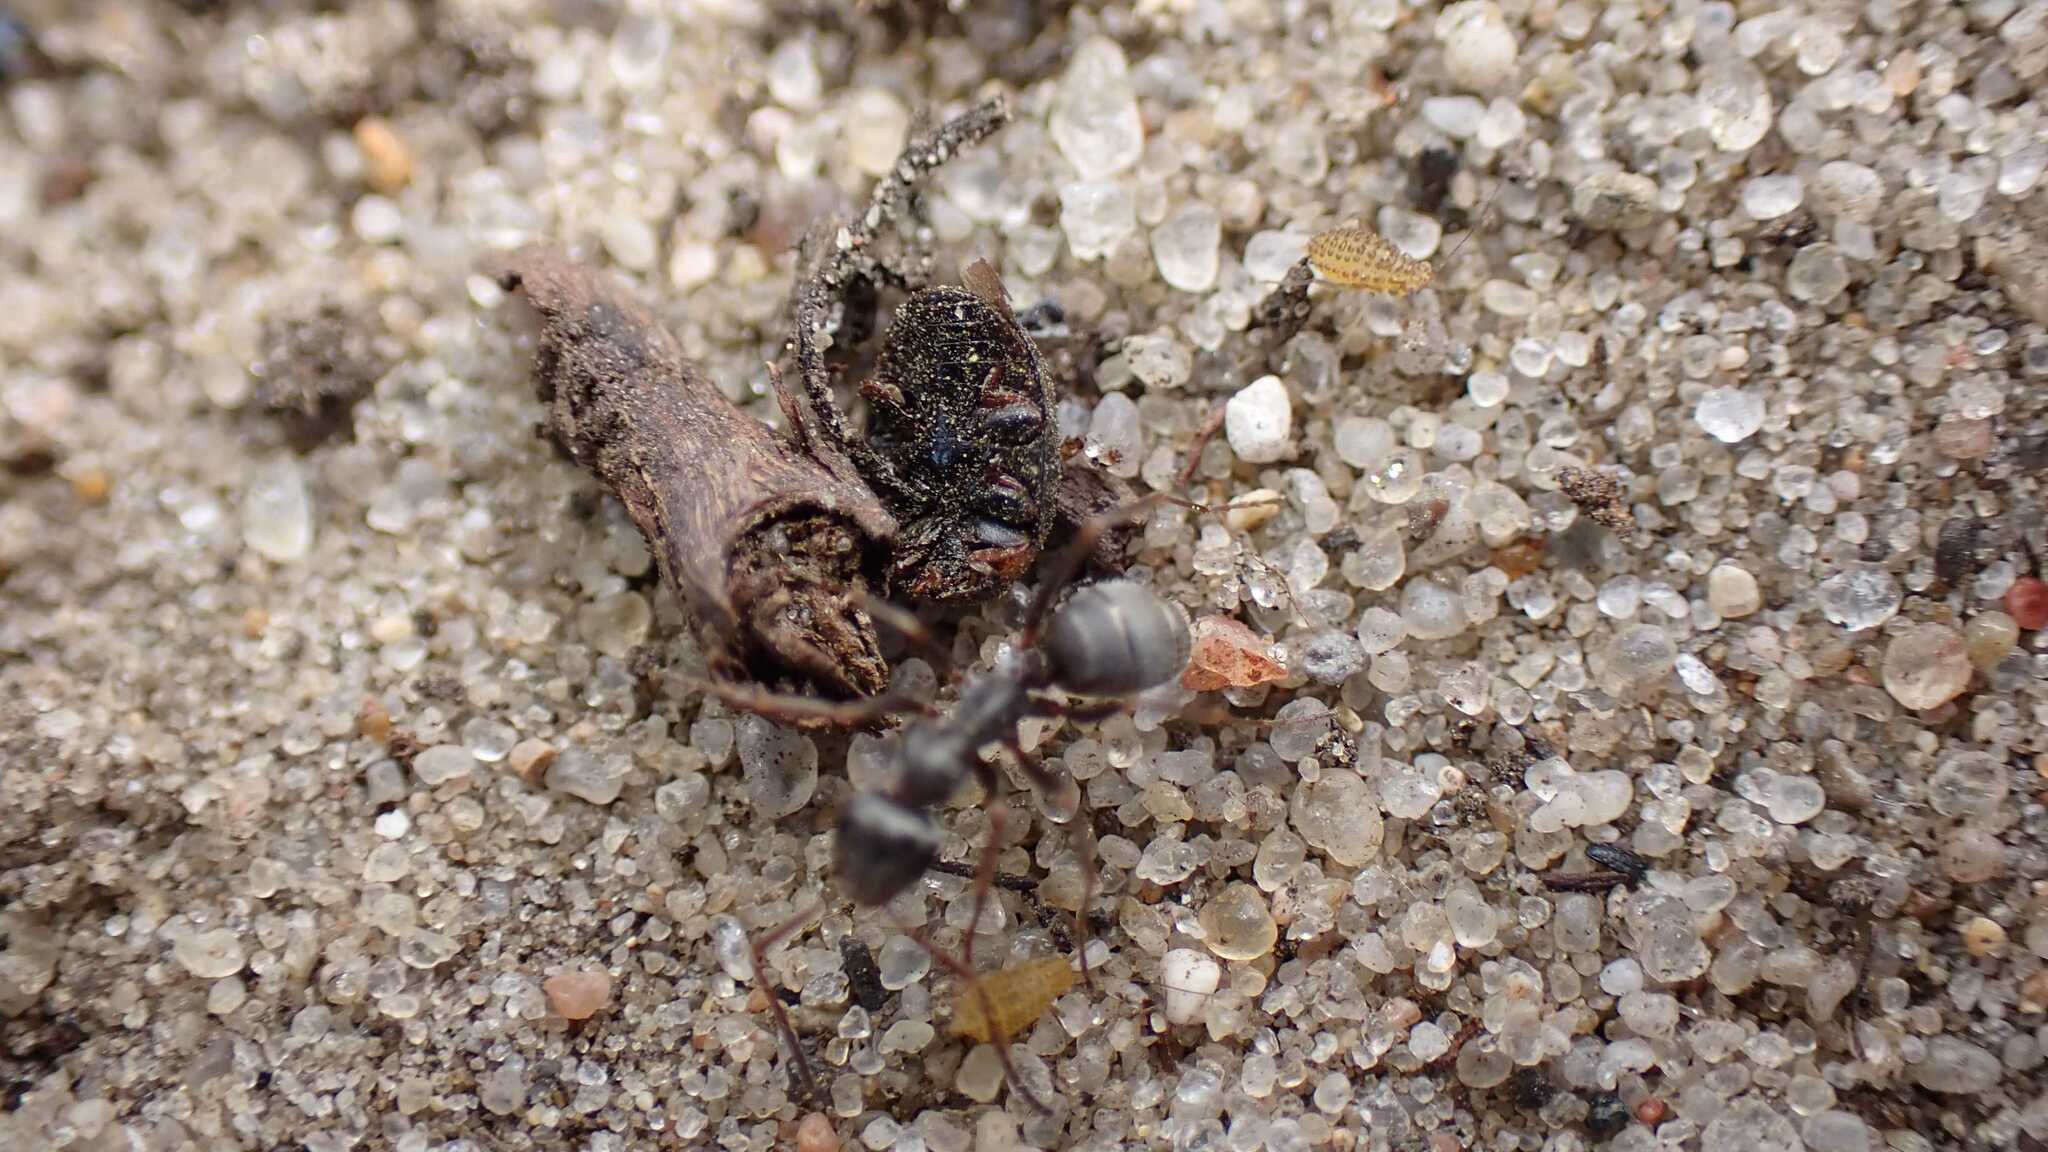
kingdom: Animalia
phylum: Arthropoda
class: Insecta
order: Coleoptera
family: Coccinellidae
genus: Platynaspis
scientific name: Platynaspis luteorubra
